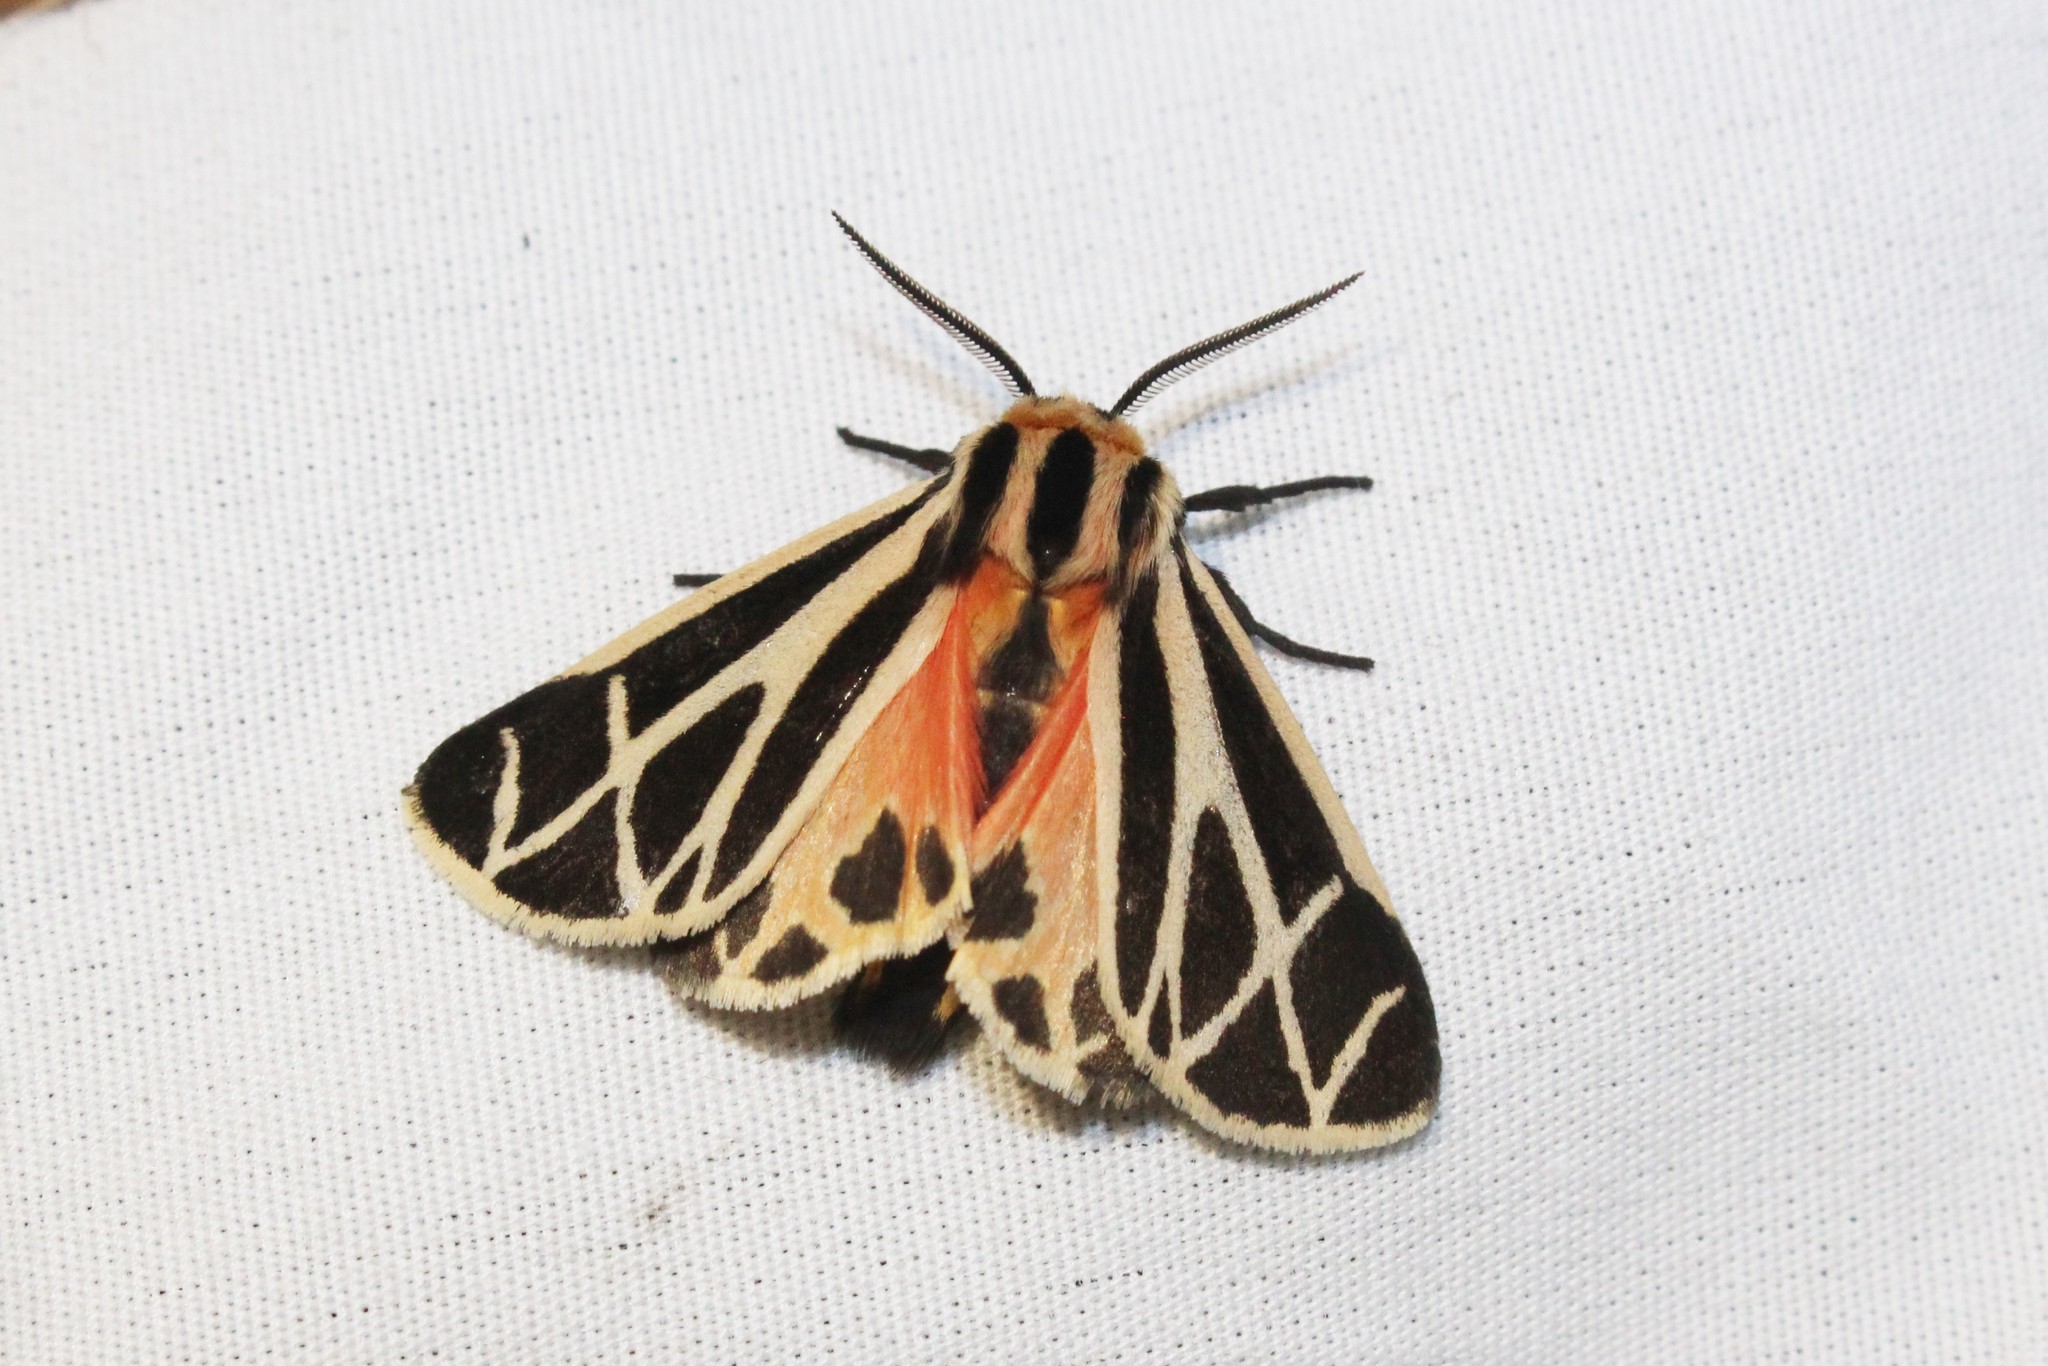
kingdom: Animalia
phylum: Arthropoda
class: Insecta
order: Lepidoptera
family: Erebidae
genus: Apantesis
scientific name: Apantesis phalerata
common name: Harnessed tiger moth
